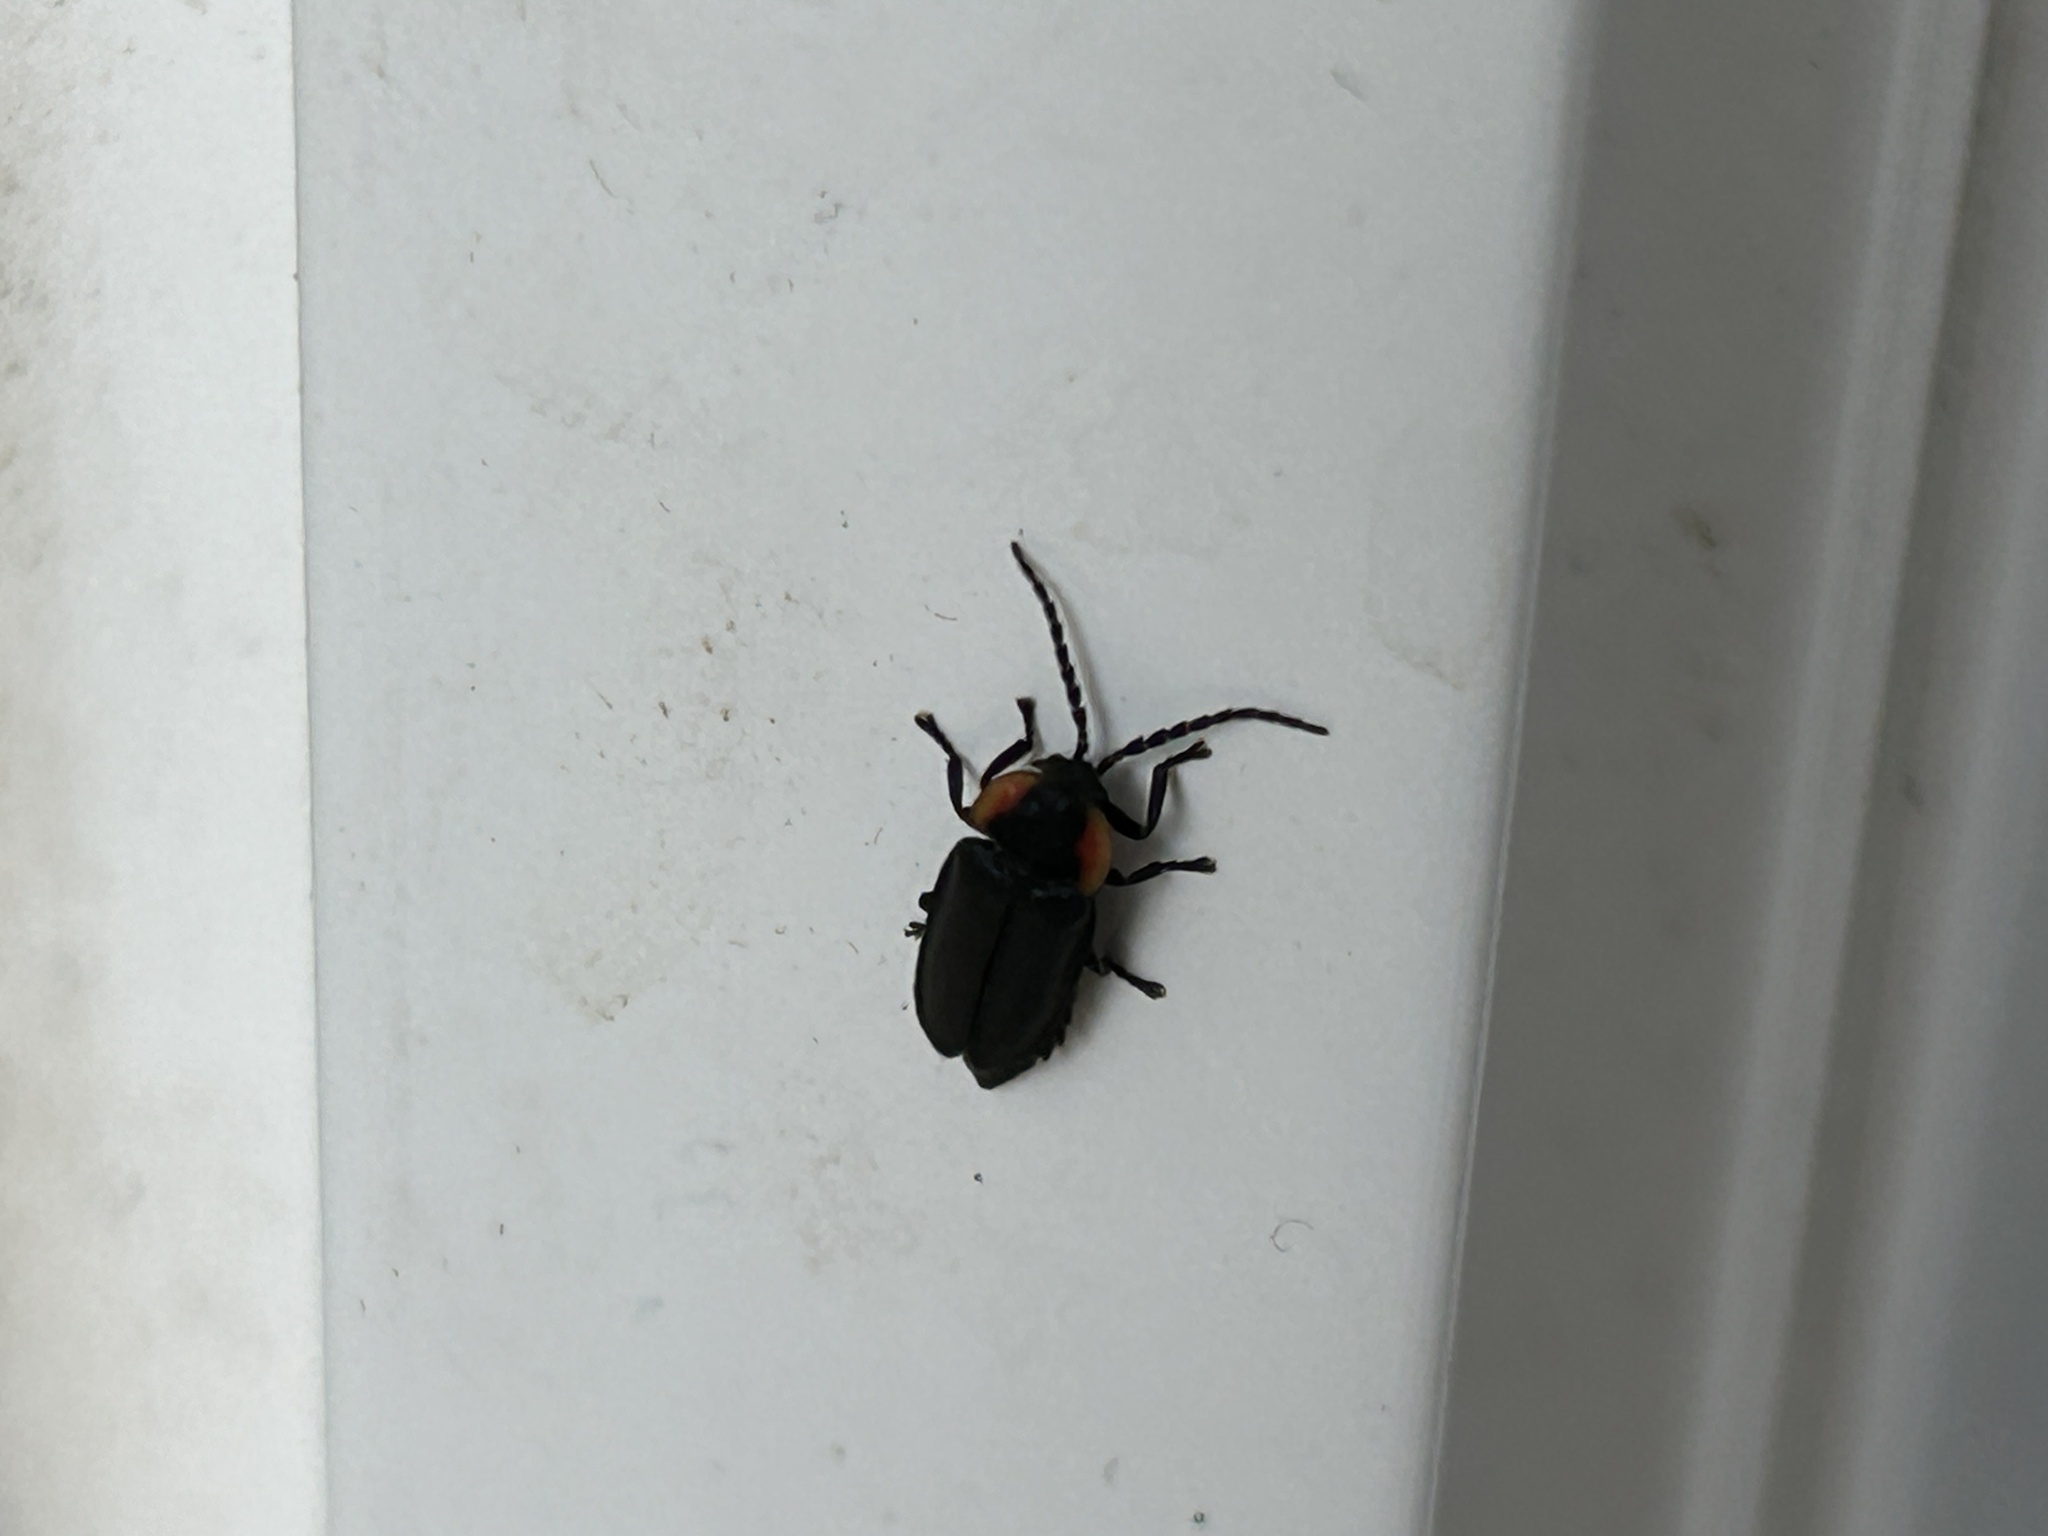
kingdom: Animalia
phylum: Arthropoda
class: Insecta
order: Coleoptera
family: Lampyridae
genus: Lucidota
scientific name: Lucidota atra
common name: Black firefly
